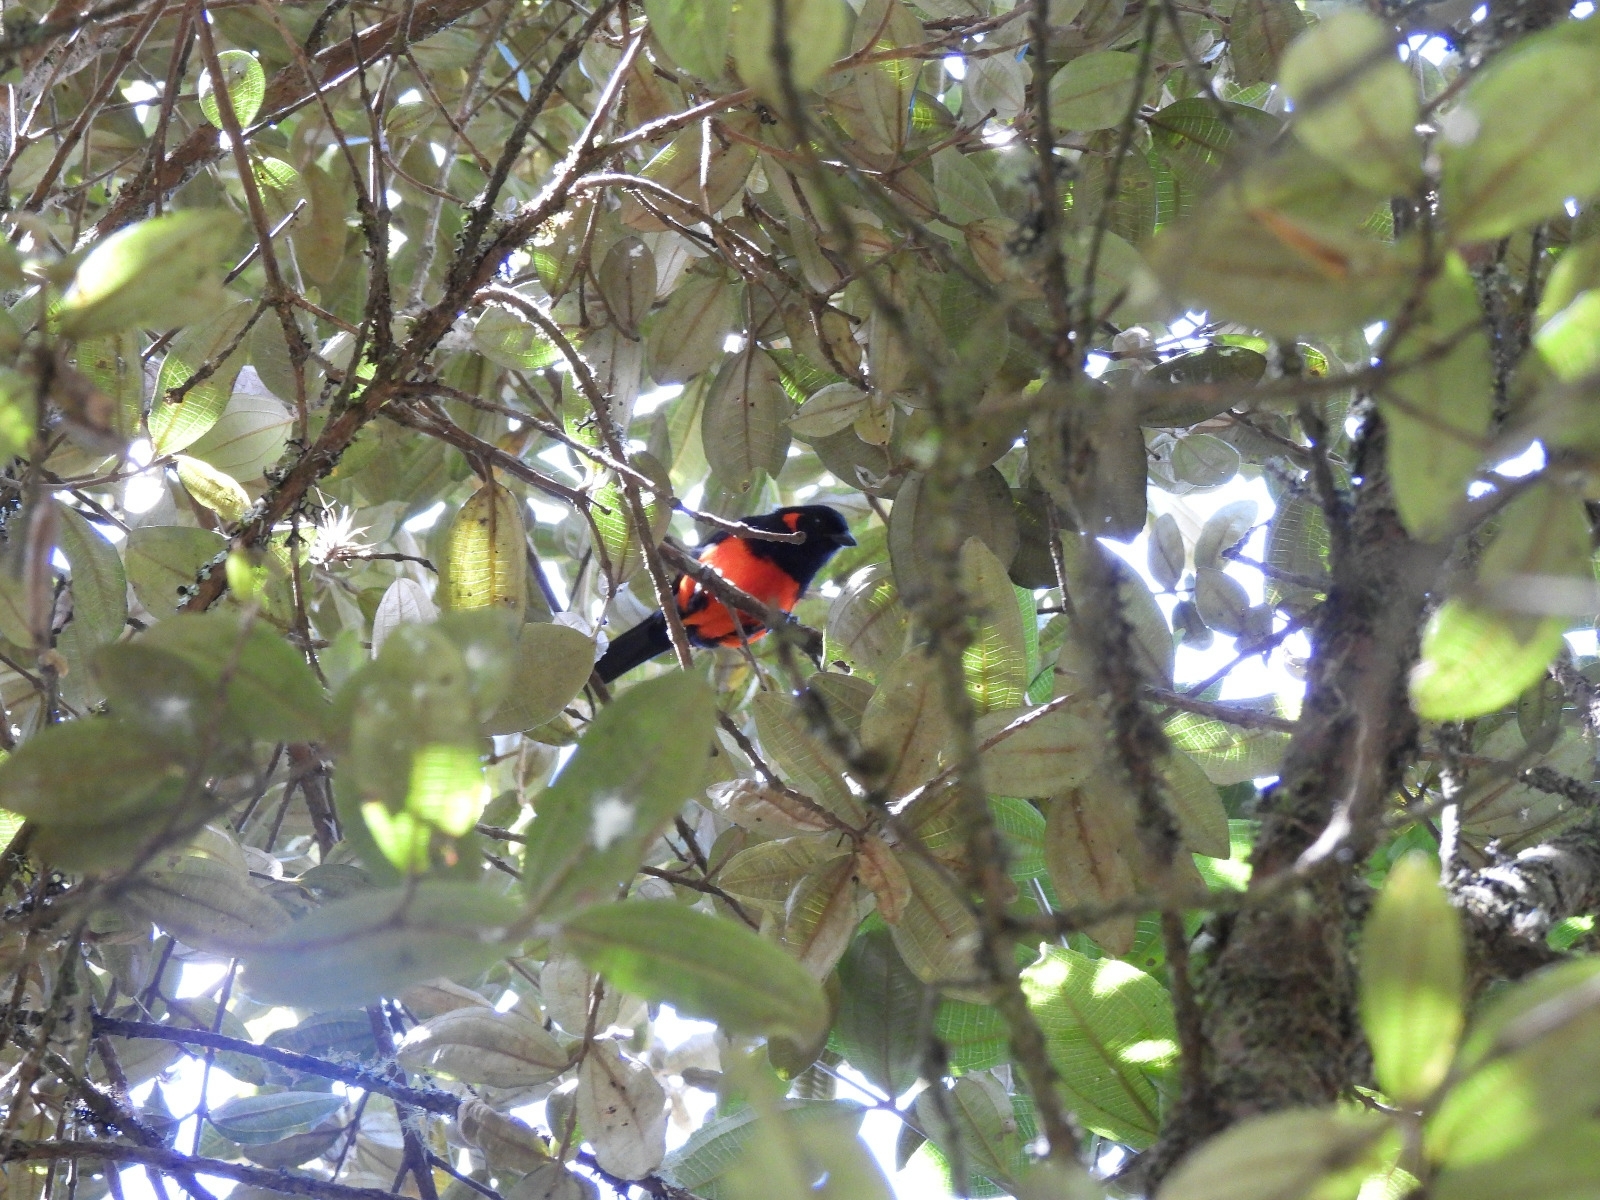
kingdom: Animalia
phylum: Chordata
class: Aves
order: Passeriformes
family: Thraupidae
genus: Anisognathus
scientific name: Anisognathus igniventris
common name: Scarlet-bellied mountain tanager
